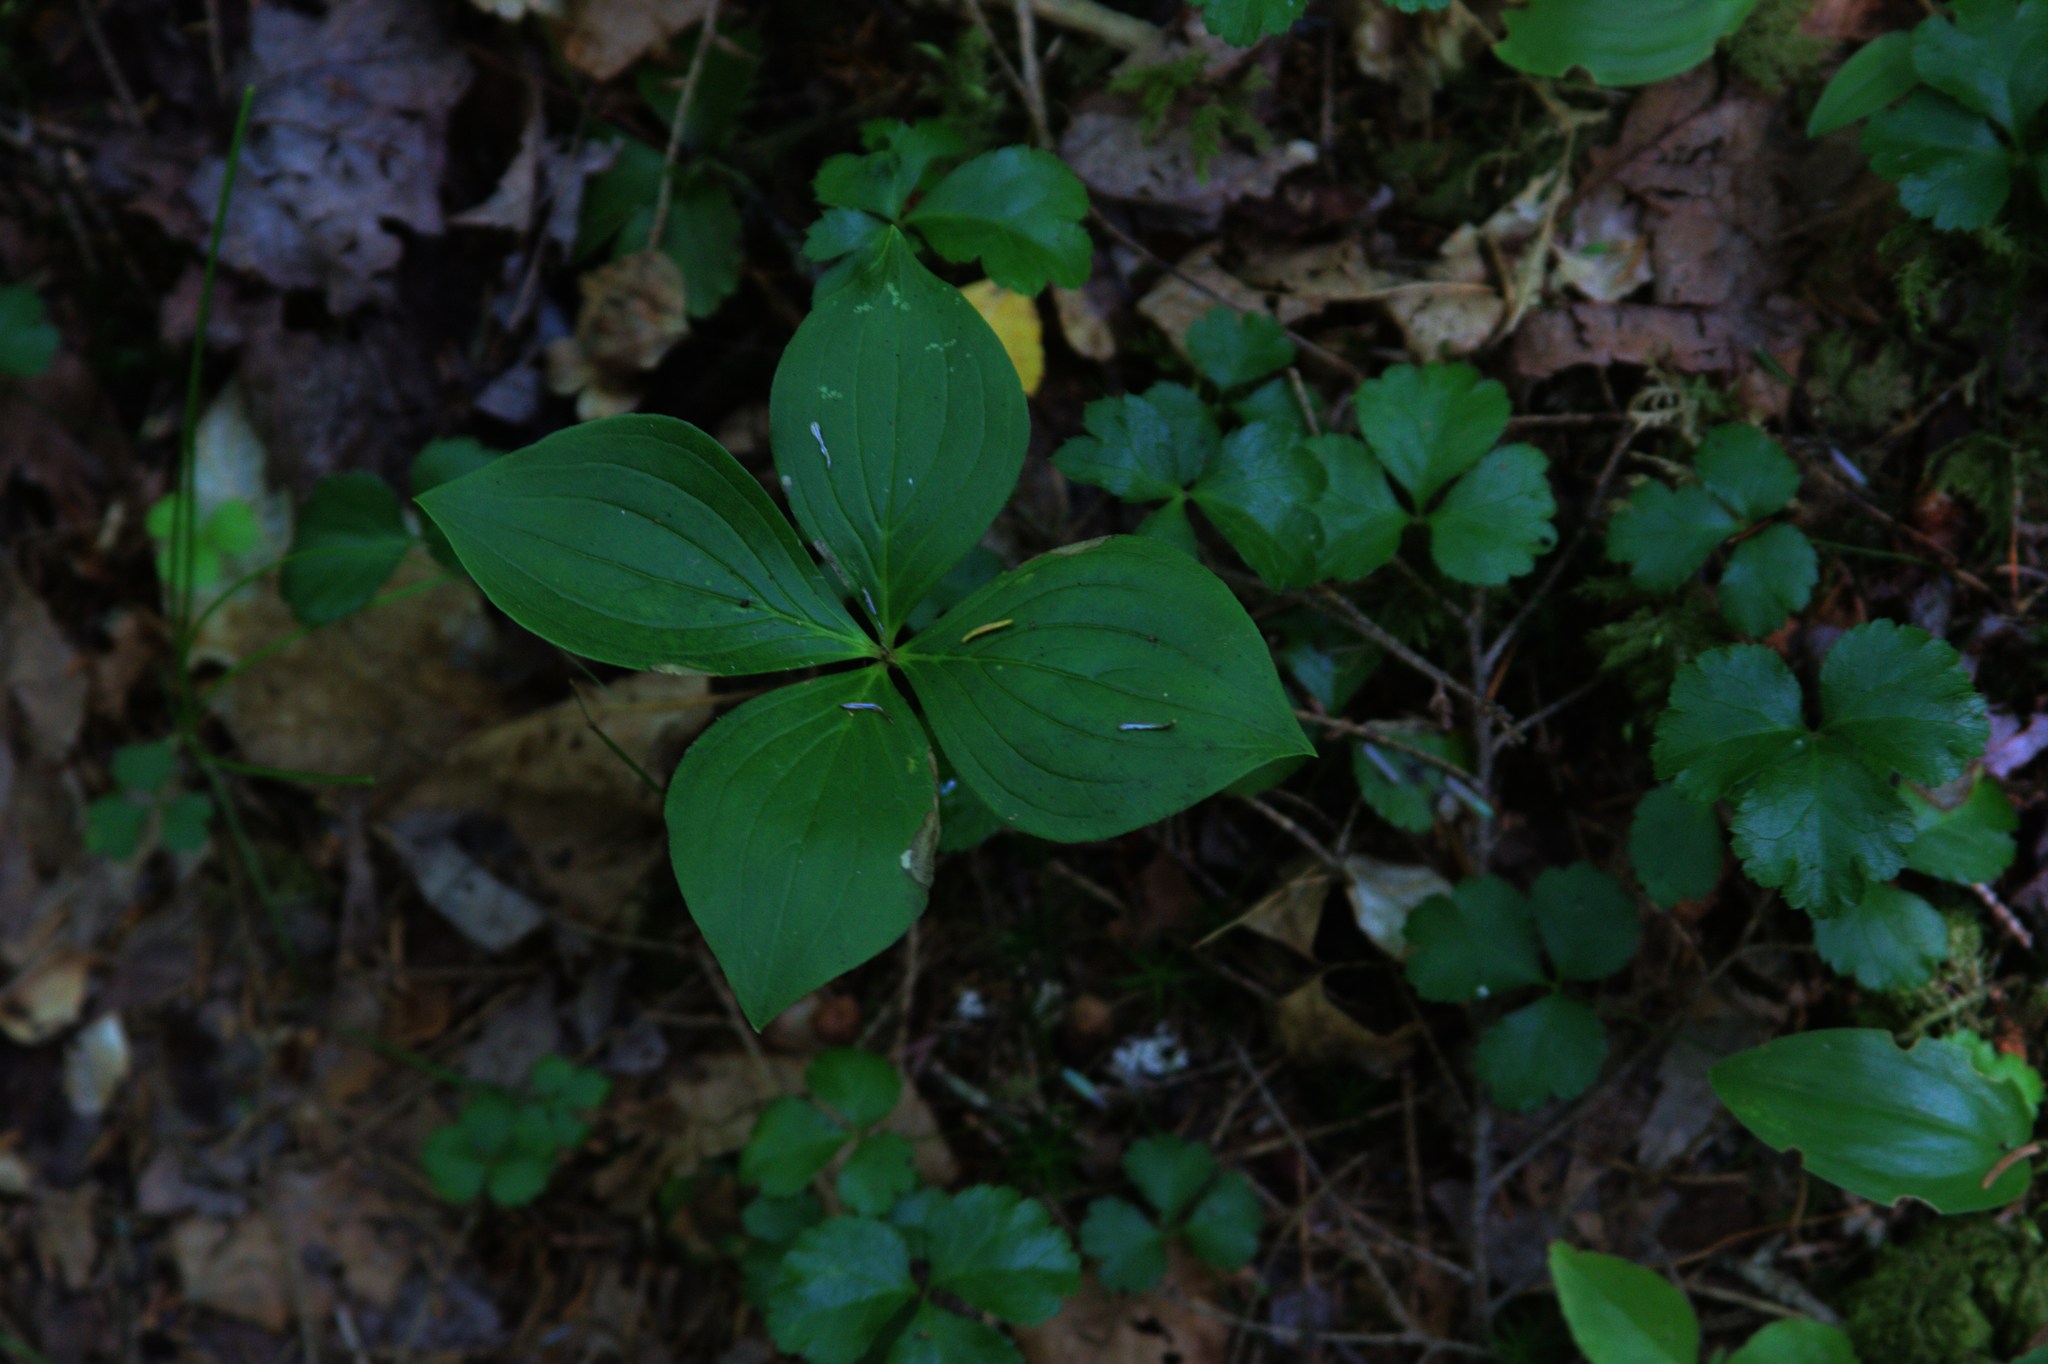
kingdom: Plantae
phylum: Tracheophyta
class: Magnoliopsida
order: Ranunculales
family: Ranunculaceae
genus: Coptis
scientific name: Coptis trifolia
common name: Canker-root
